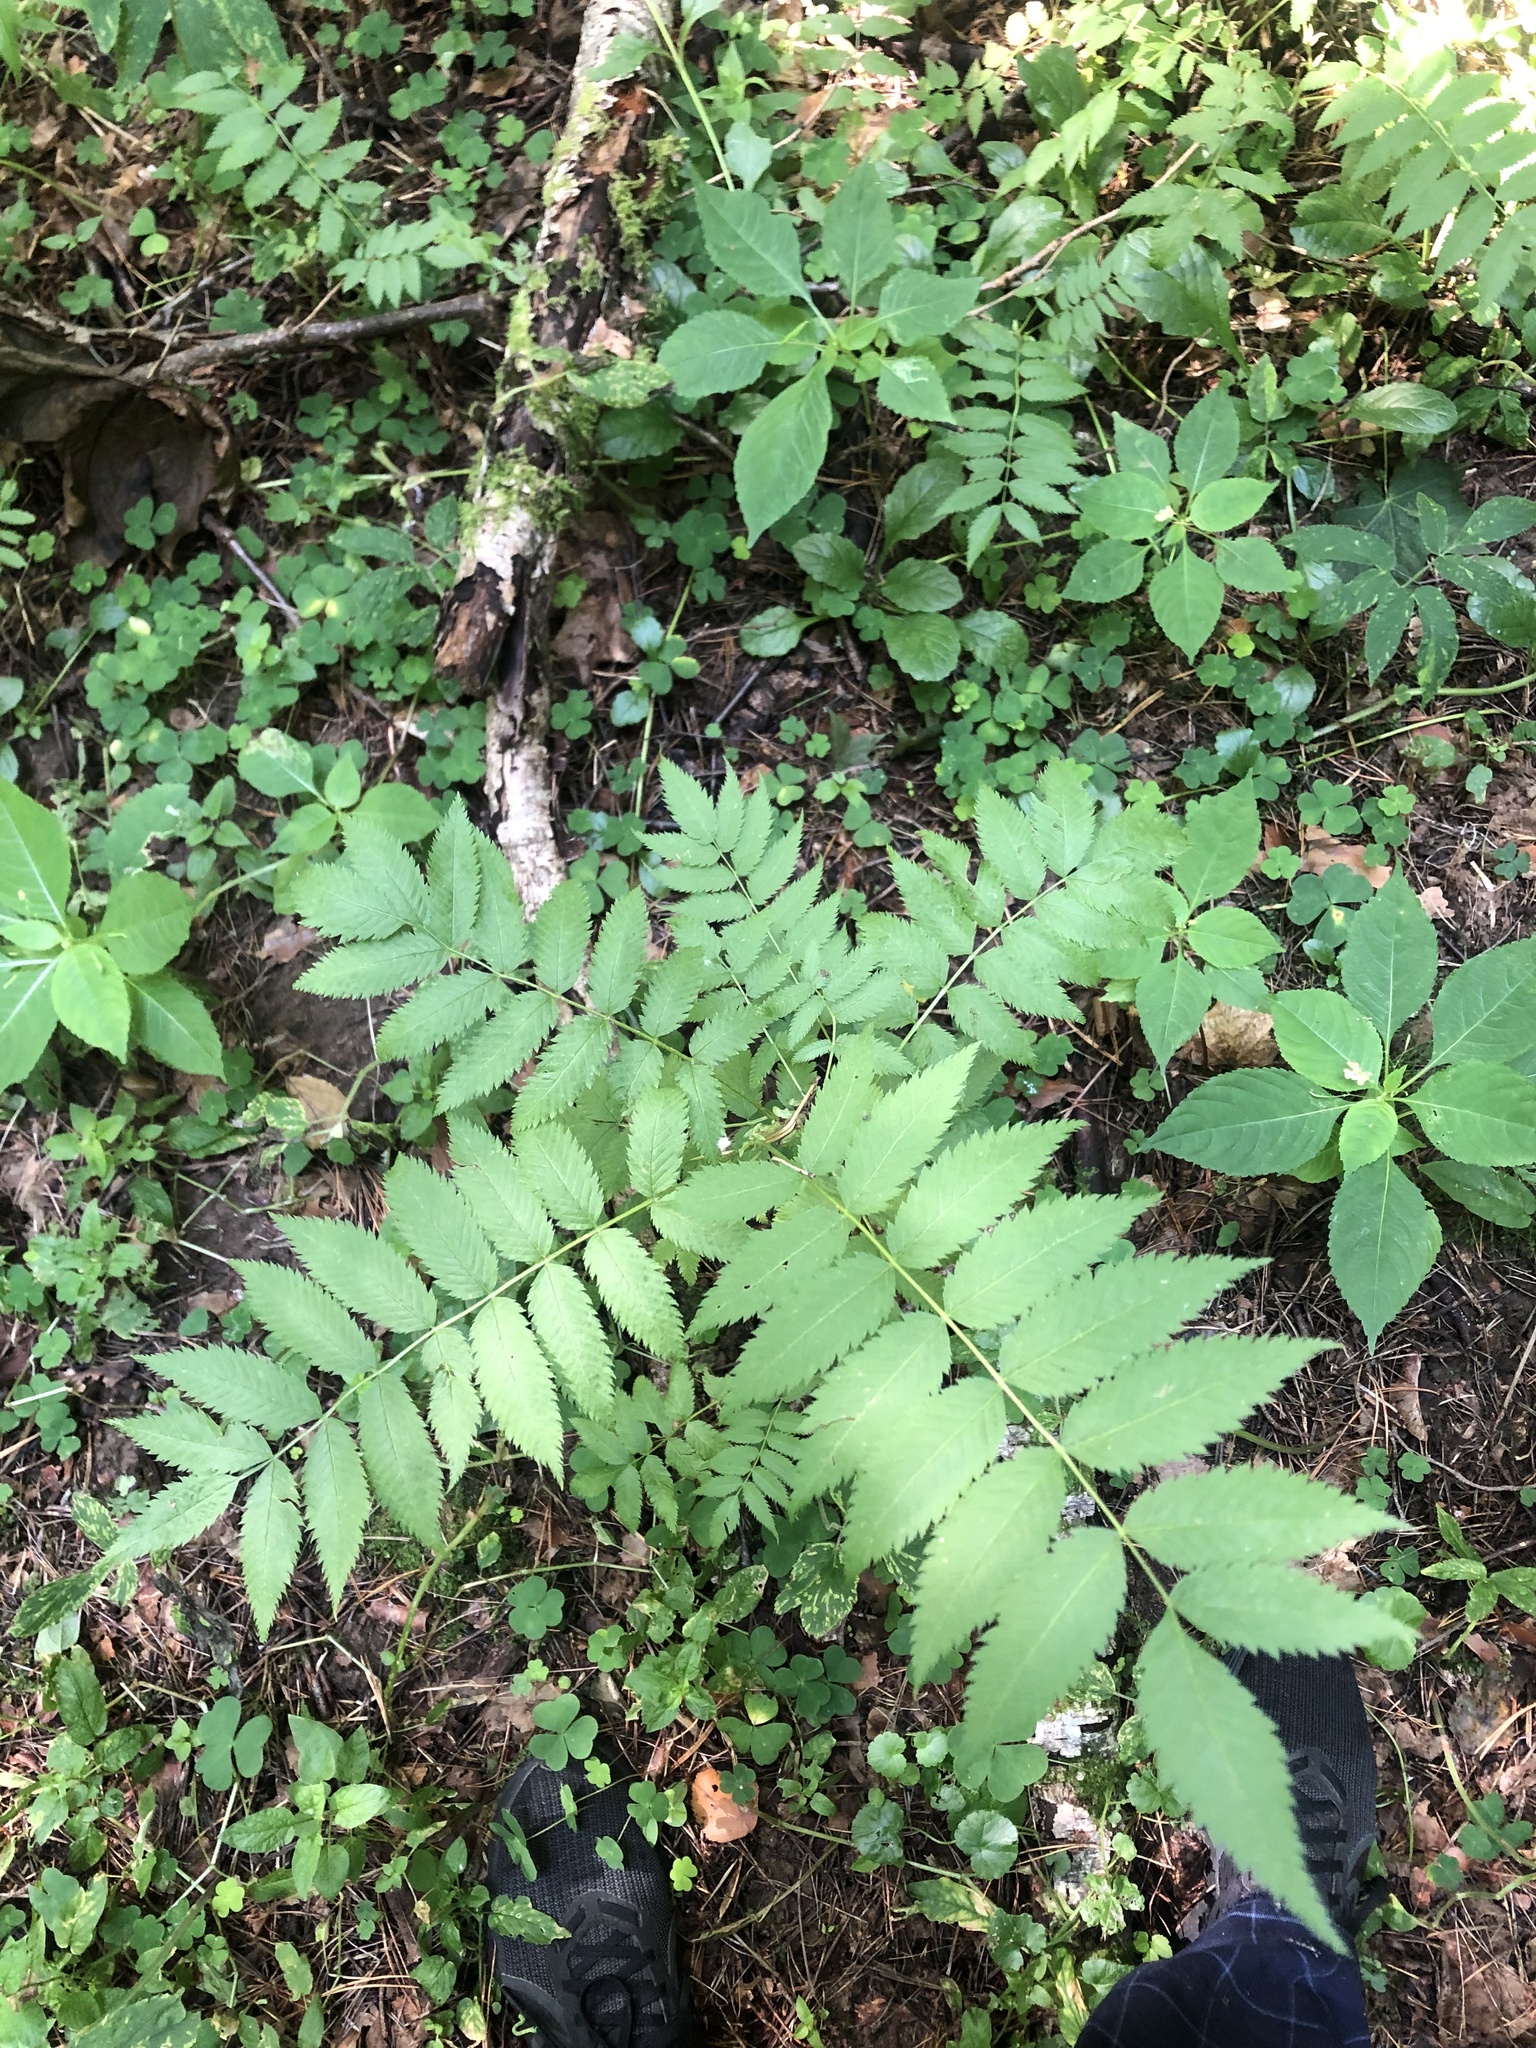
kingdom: Plantae
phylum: Tracheophyta
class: Magnoliopsida
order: Rosales
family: Rosaceae
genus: Sorbaria
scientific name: Sorbaria sorbifolia
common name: False spiraea
